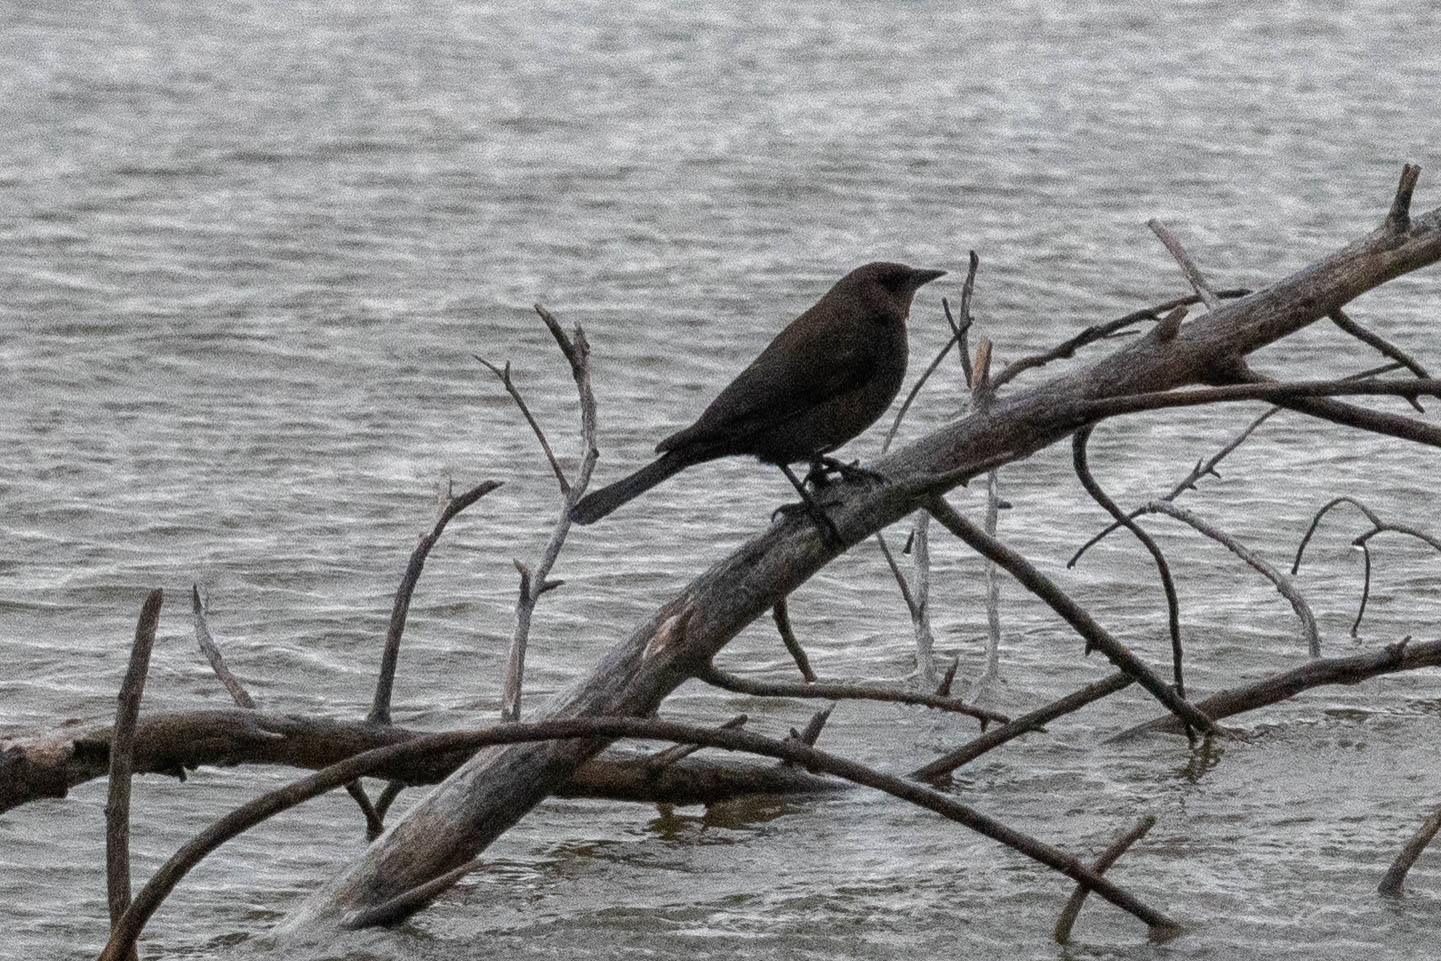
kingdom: Animalia
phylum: Chordata
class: Aves
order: Passeriformes
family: Icteridae
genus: Euphagus
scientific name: Euphagus cyanocephalus
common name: Brewer's blackbird
